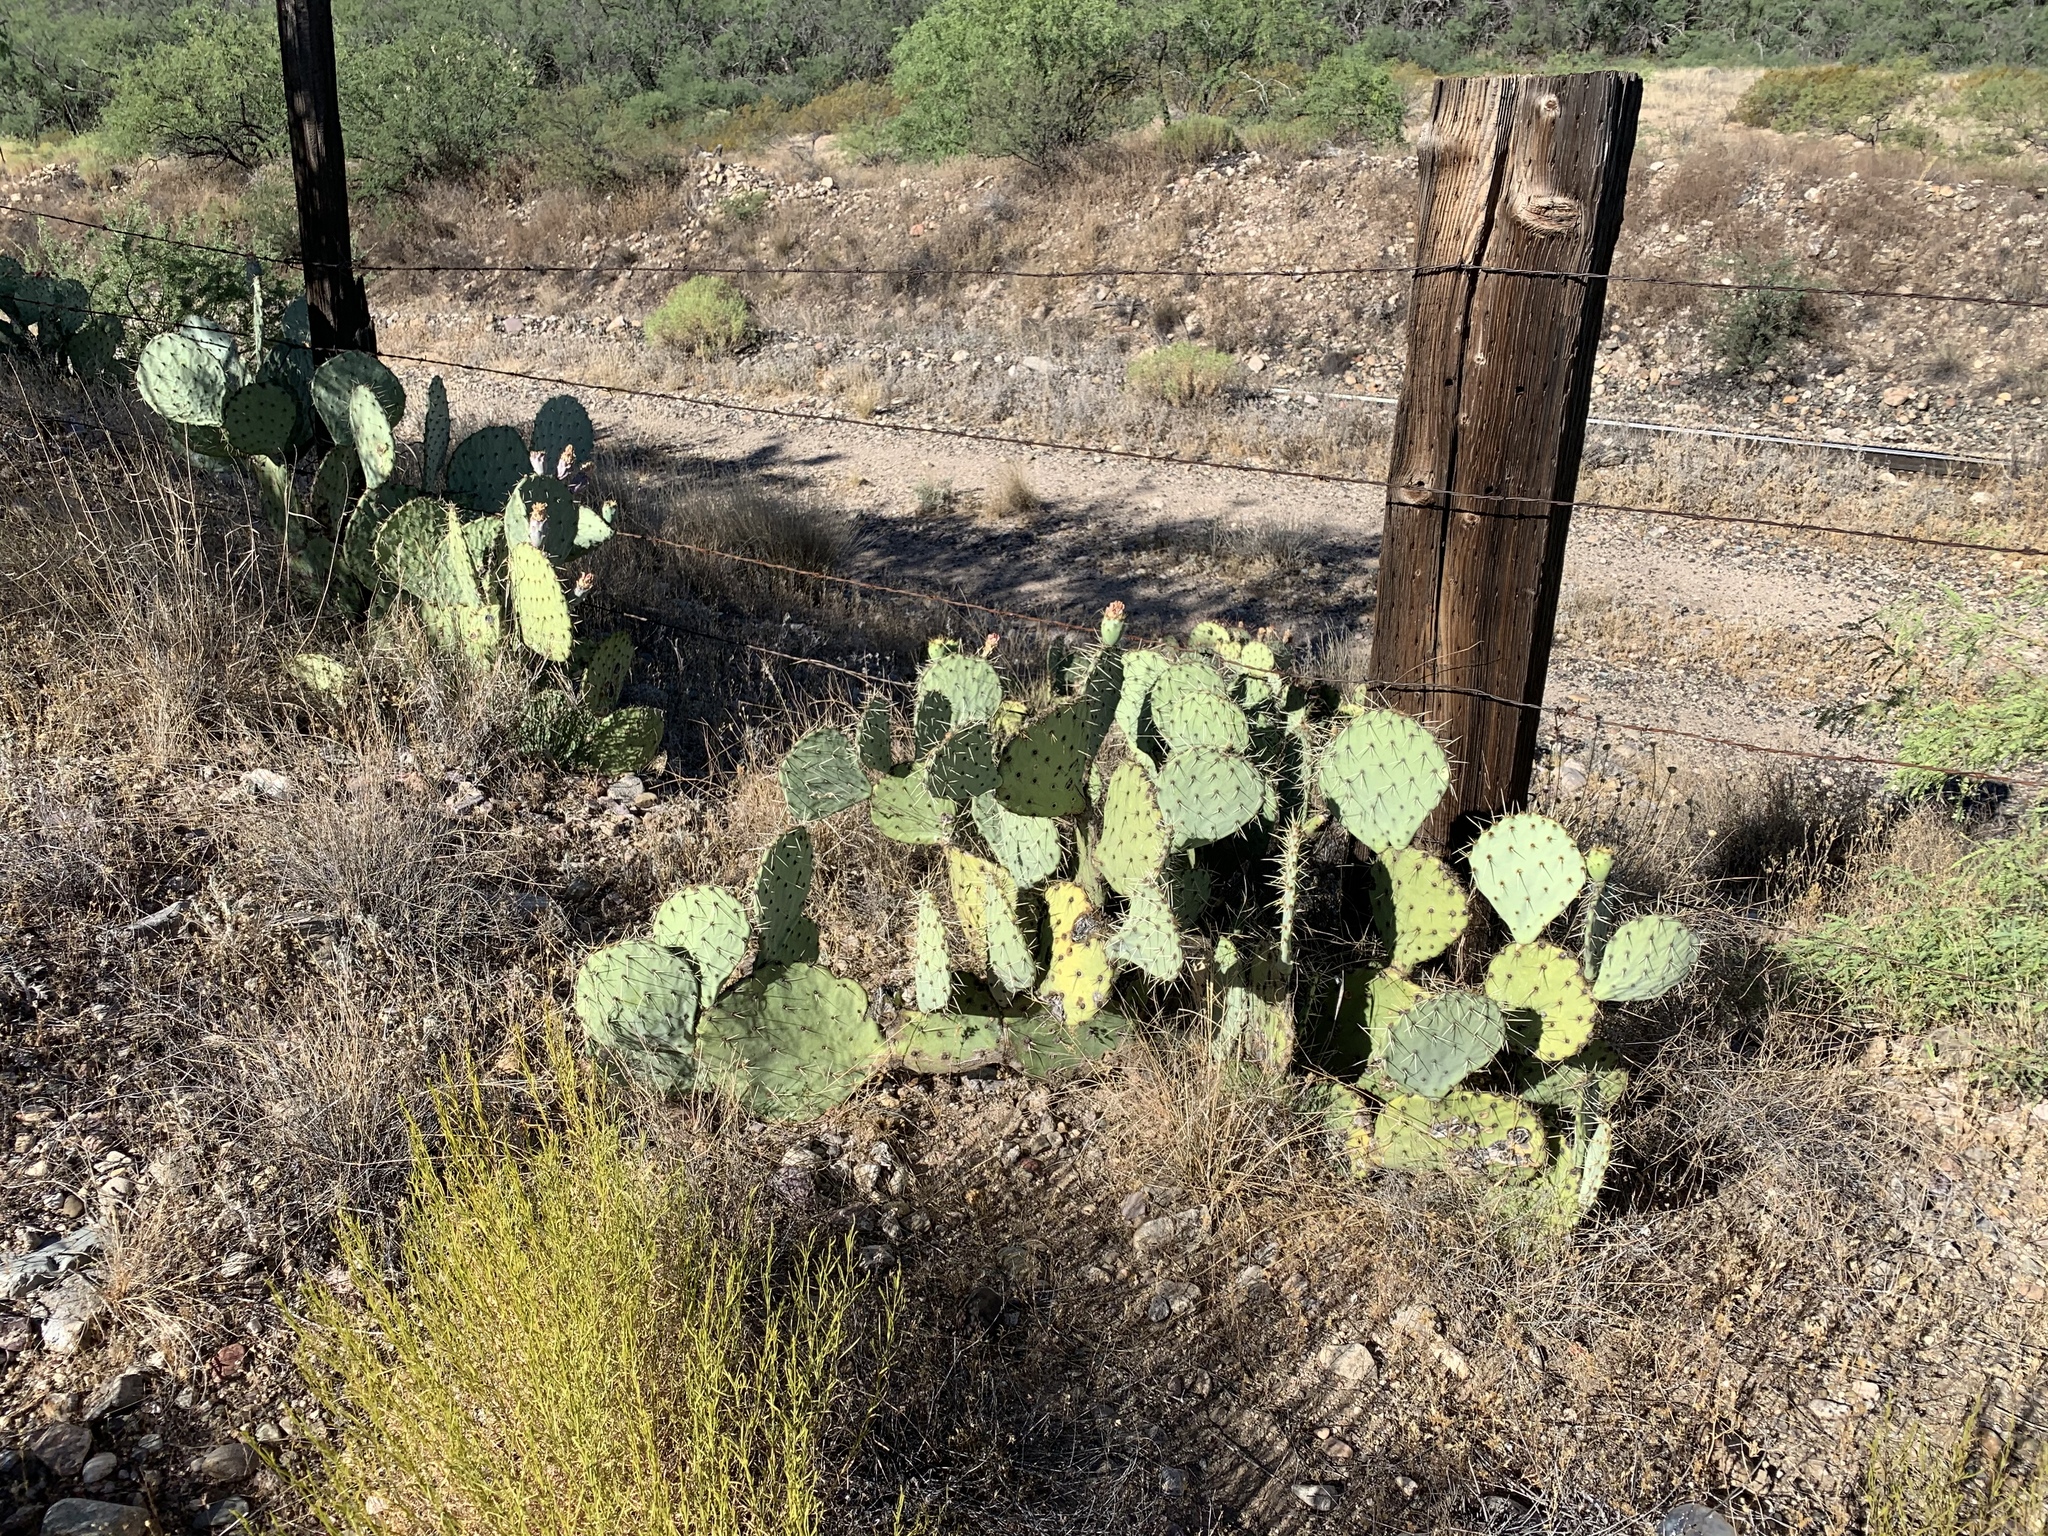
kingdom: Plantae
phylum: Tracheophyta
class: Magnoliopsida
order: Caryophyllales
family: Cactaceae
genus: Opuntia
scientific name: Opuntia engelmannii
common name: Cactus-apple
